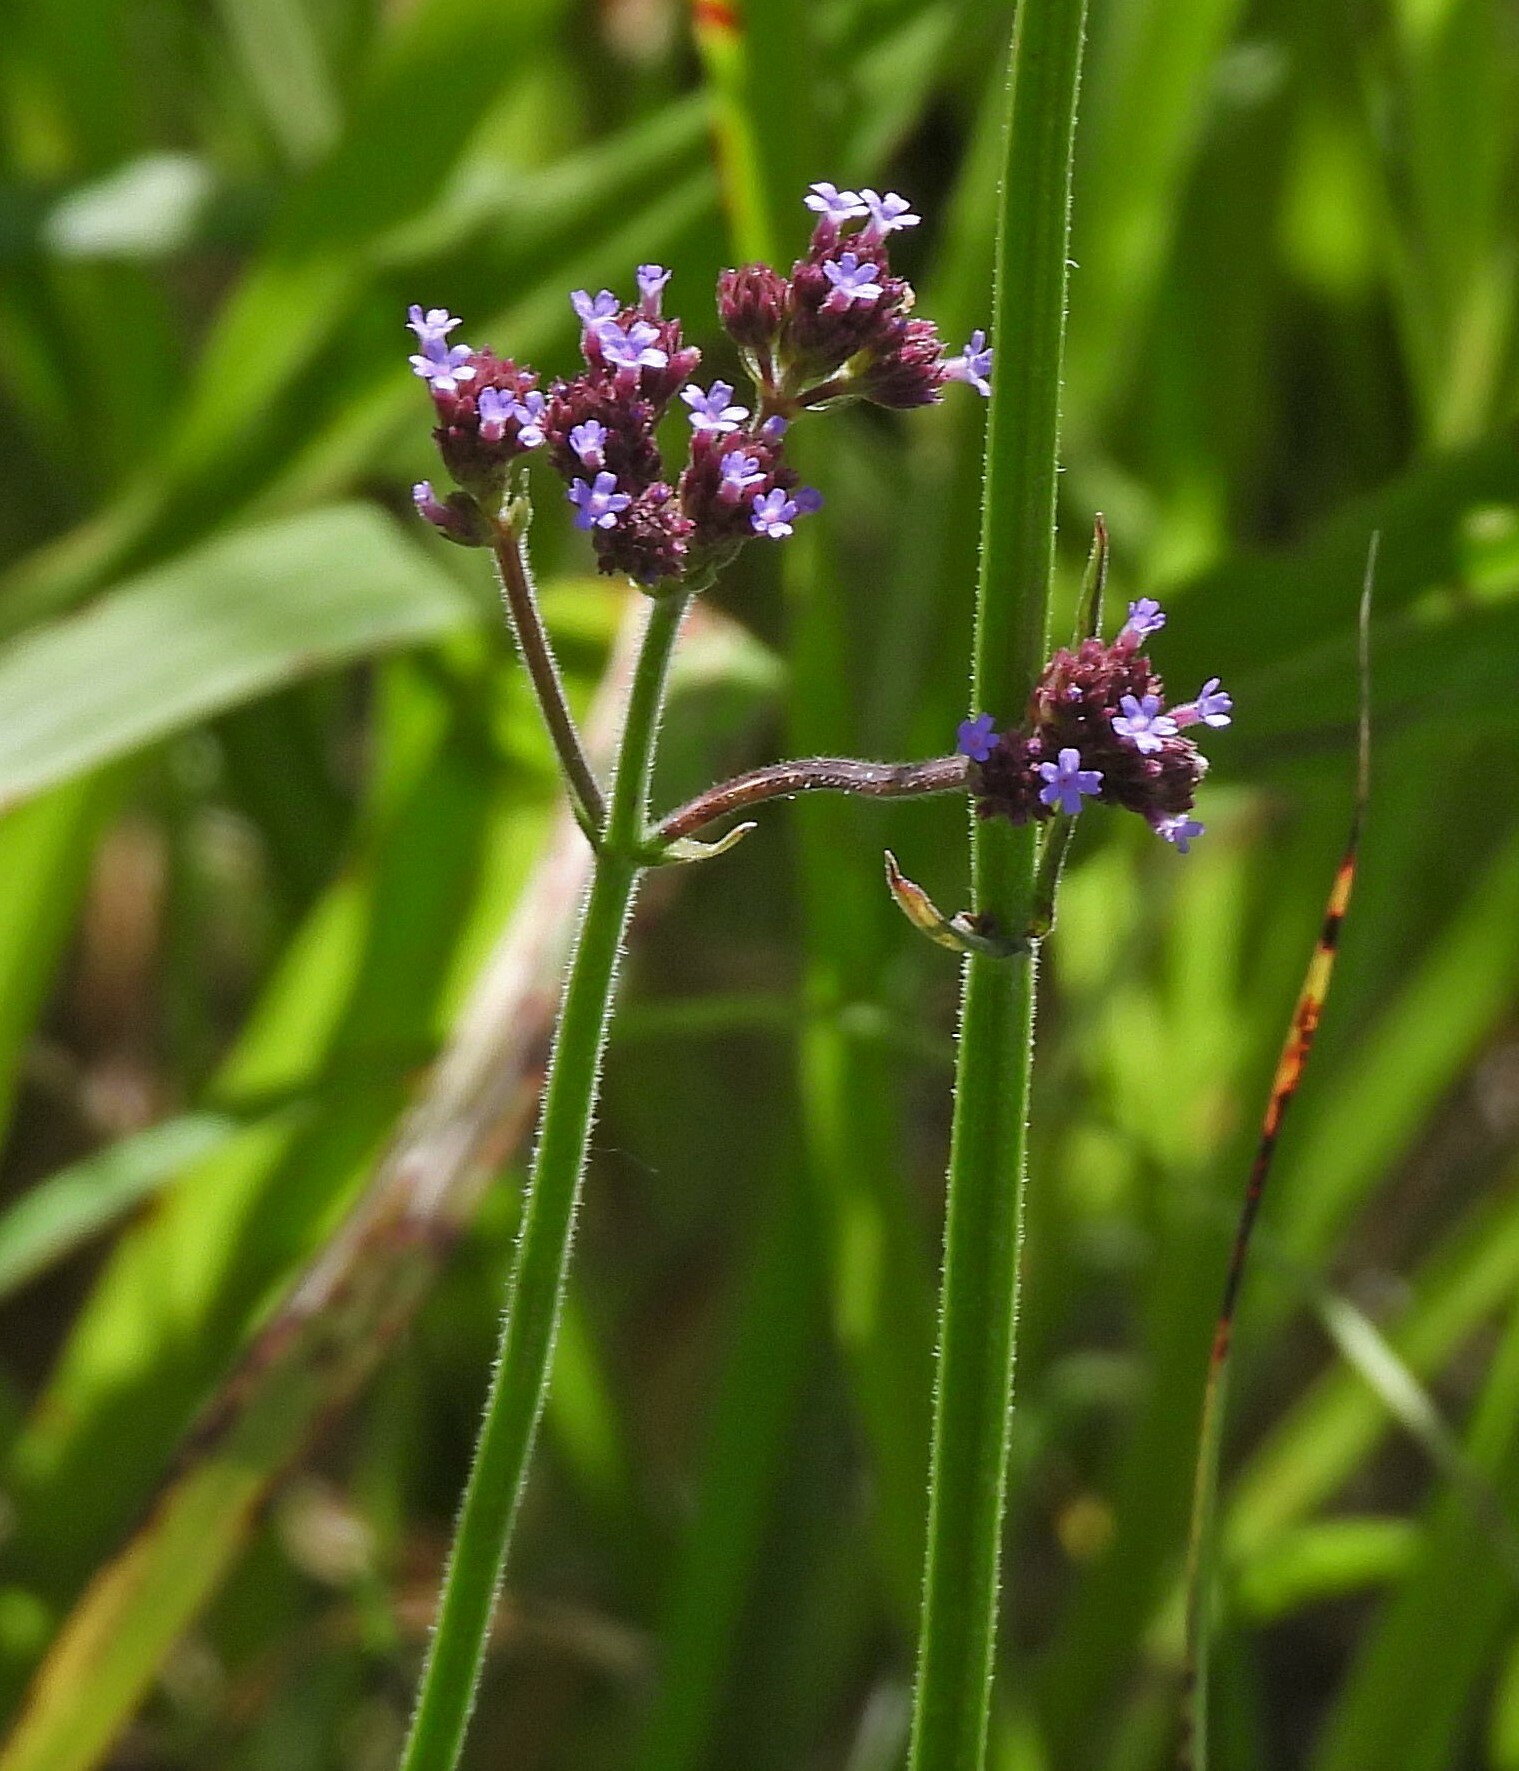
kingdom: Plantae
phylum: Tracheophyta
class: Magnoliopsida
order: Lamiales
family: Verbenaceae
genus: Verbena
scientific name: Verbena bonariensis
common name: Purpletop vervain
